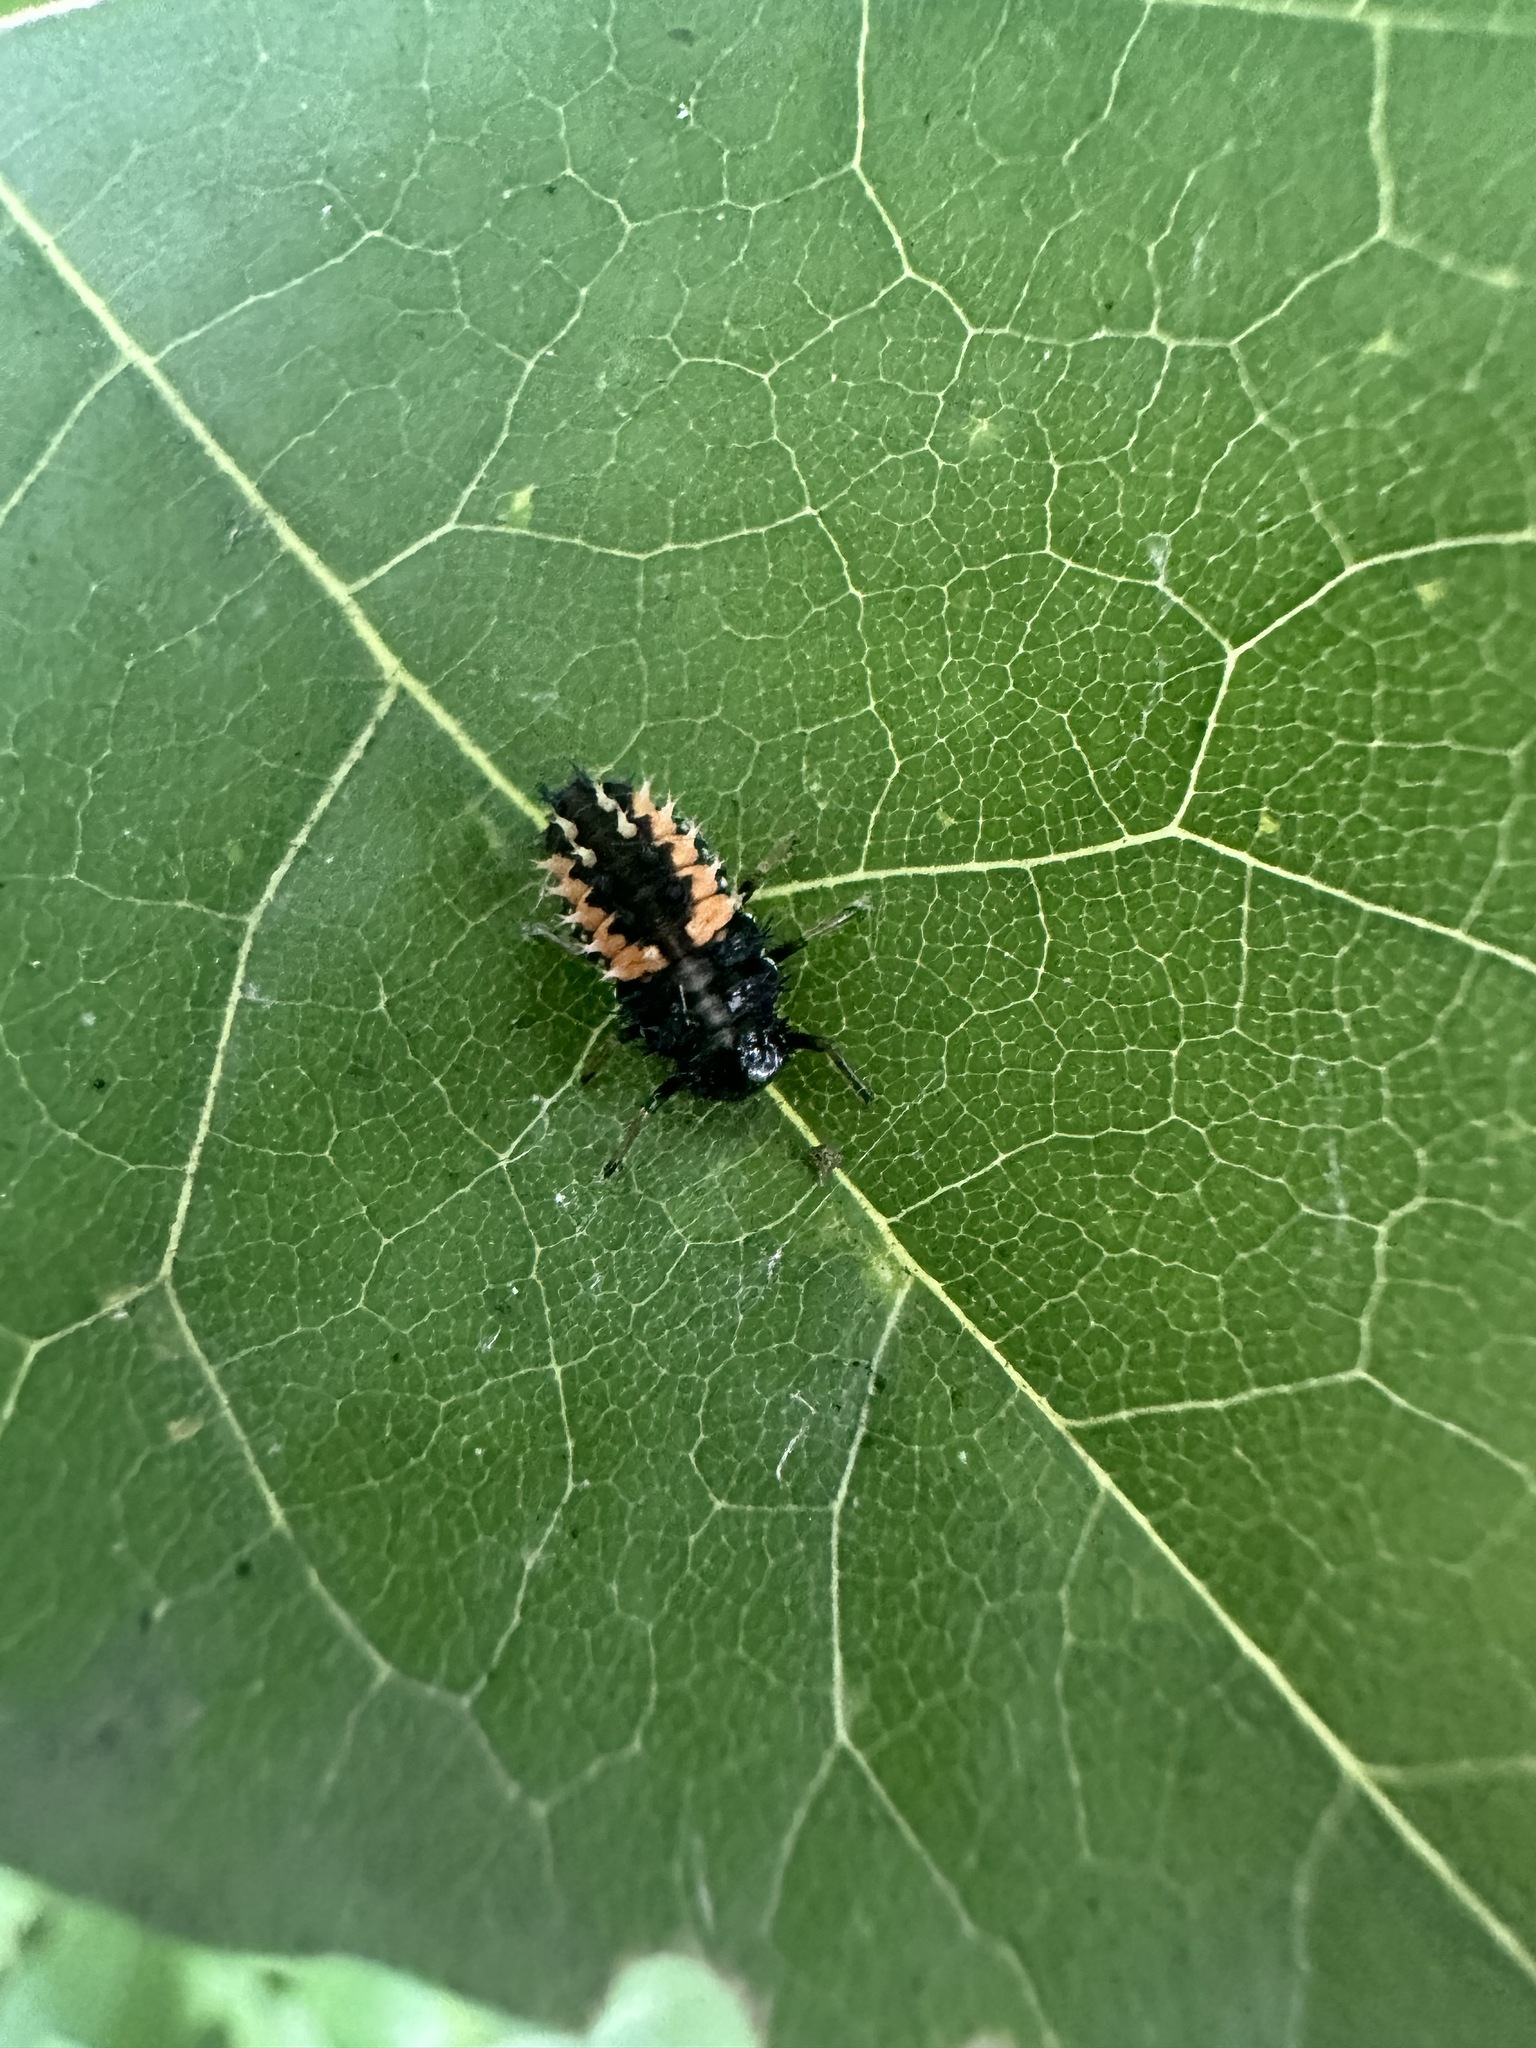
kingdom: Animalia
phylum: Arthropoda
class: Insecta
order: Coleoptera
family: Coccinellidae
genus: Harmonia
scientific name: Harmonia axyridis
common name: Harlequin ladybird
